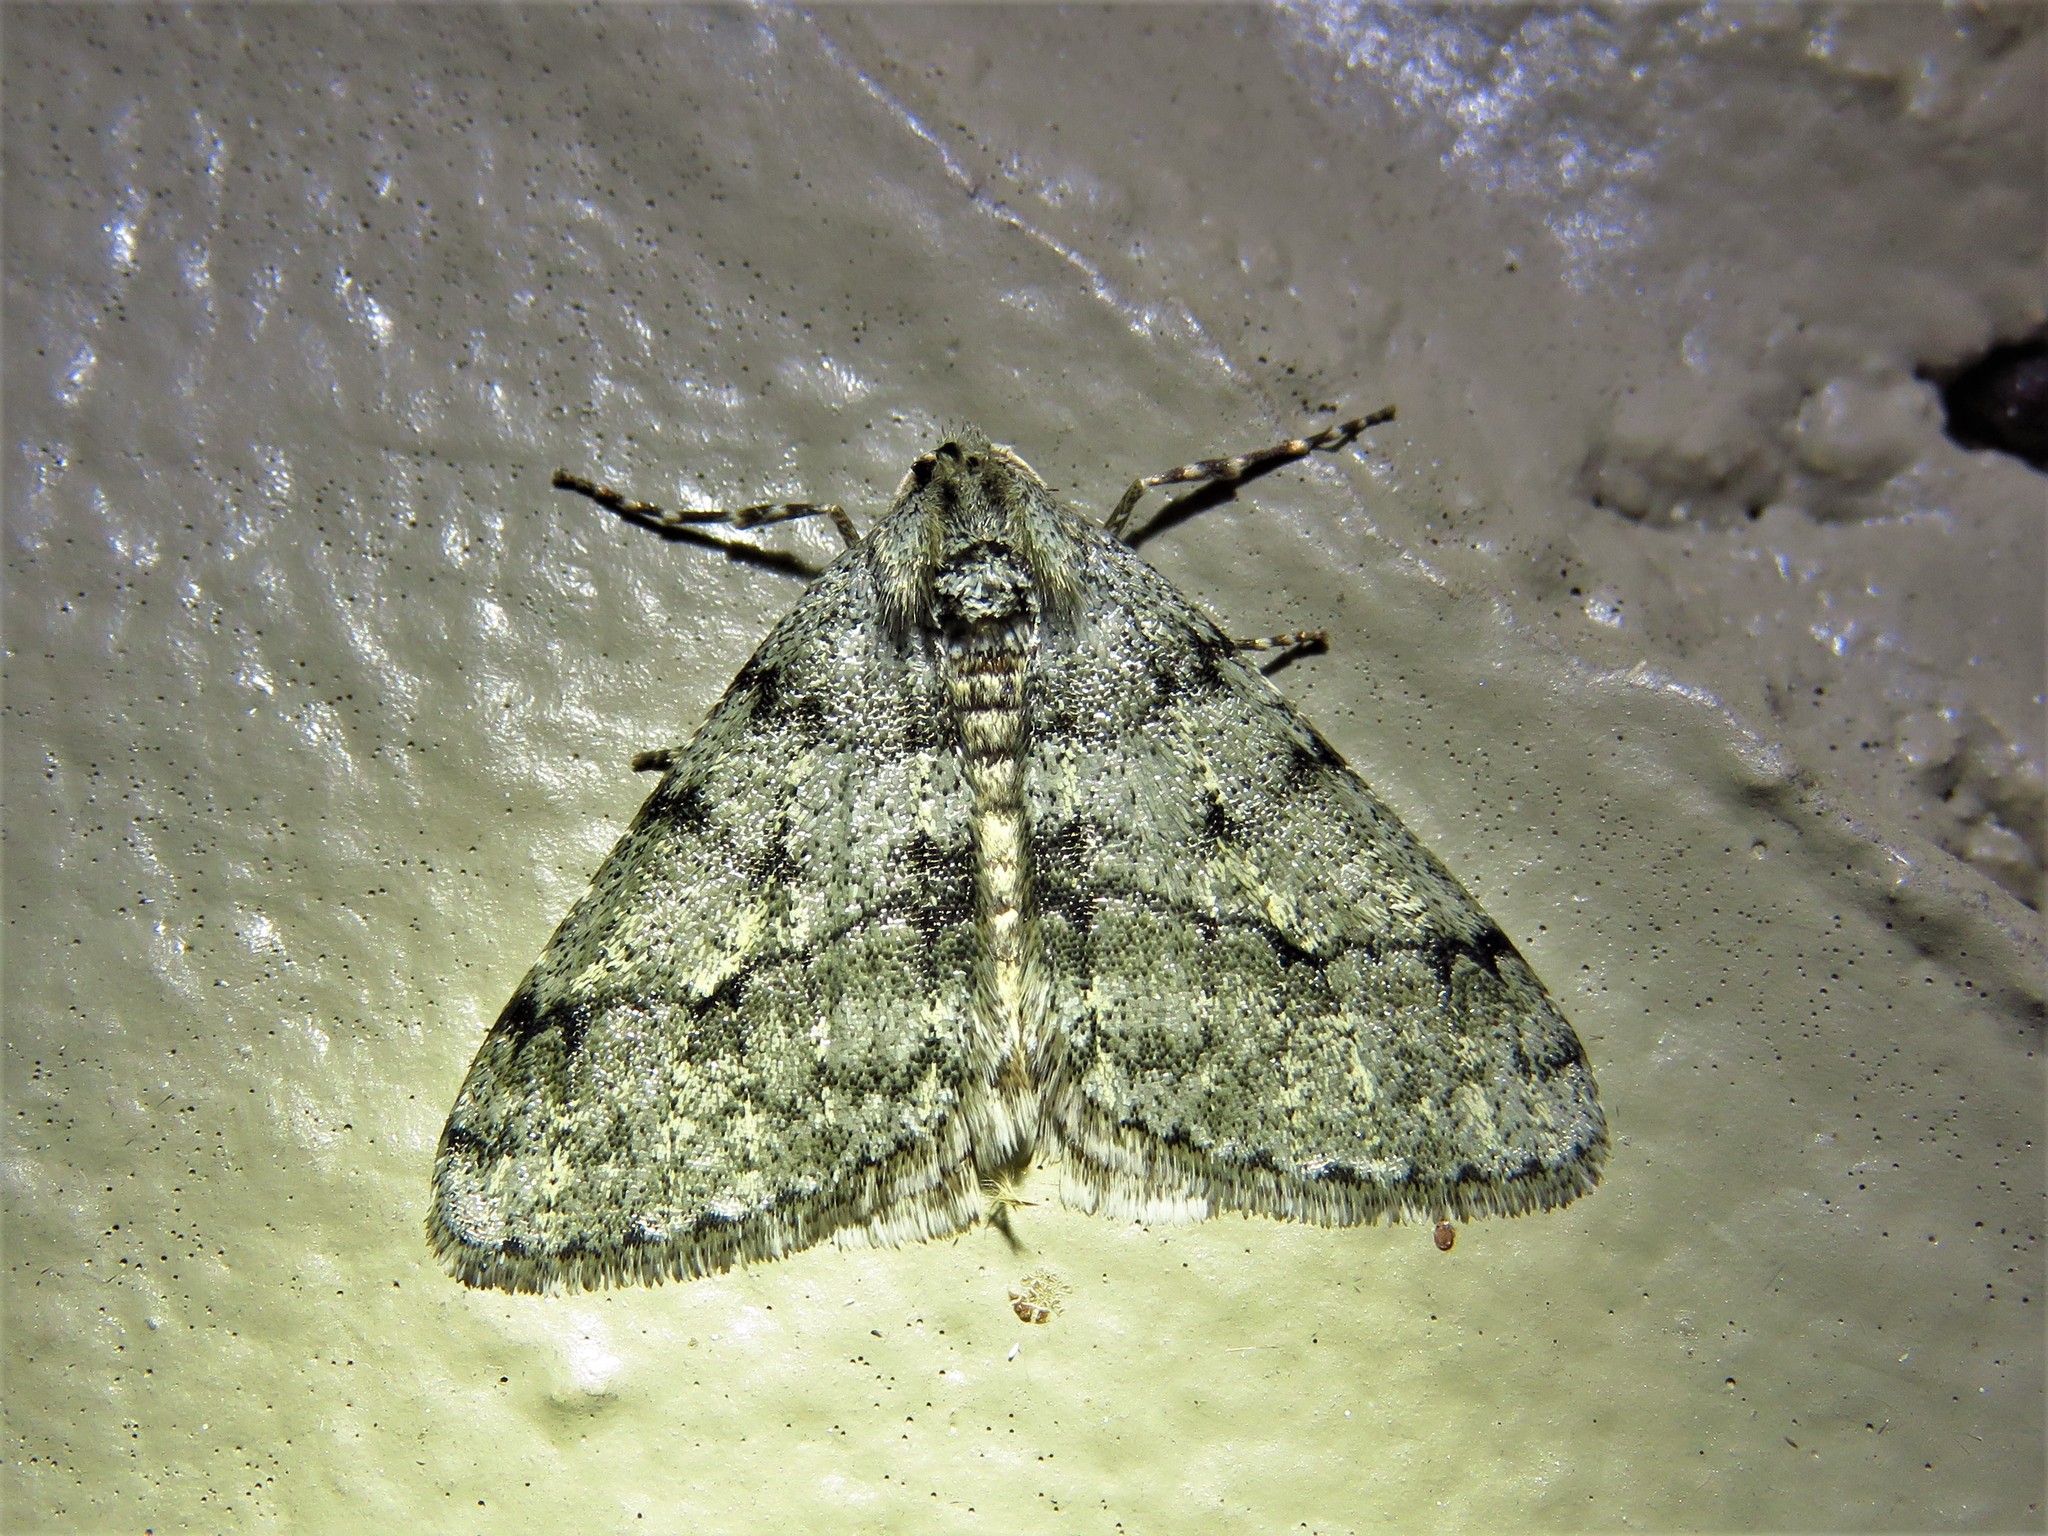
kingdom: Animalia
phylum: Arthropoda
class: Insecta
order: Lepidoptera
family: Geometridae
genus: Phigalia
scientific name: Phigalia strigataria
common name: Small phigalia
